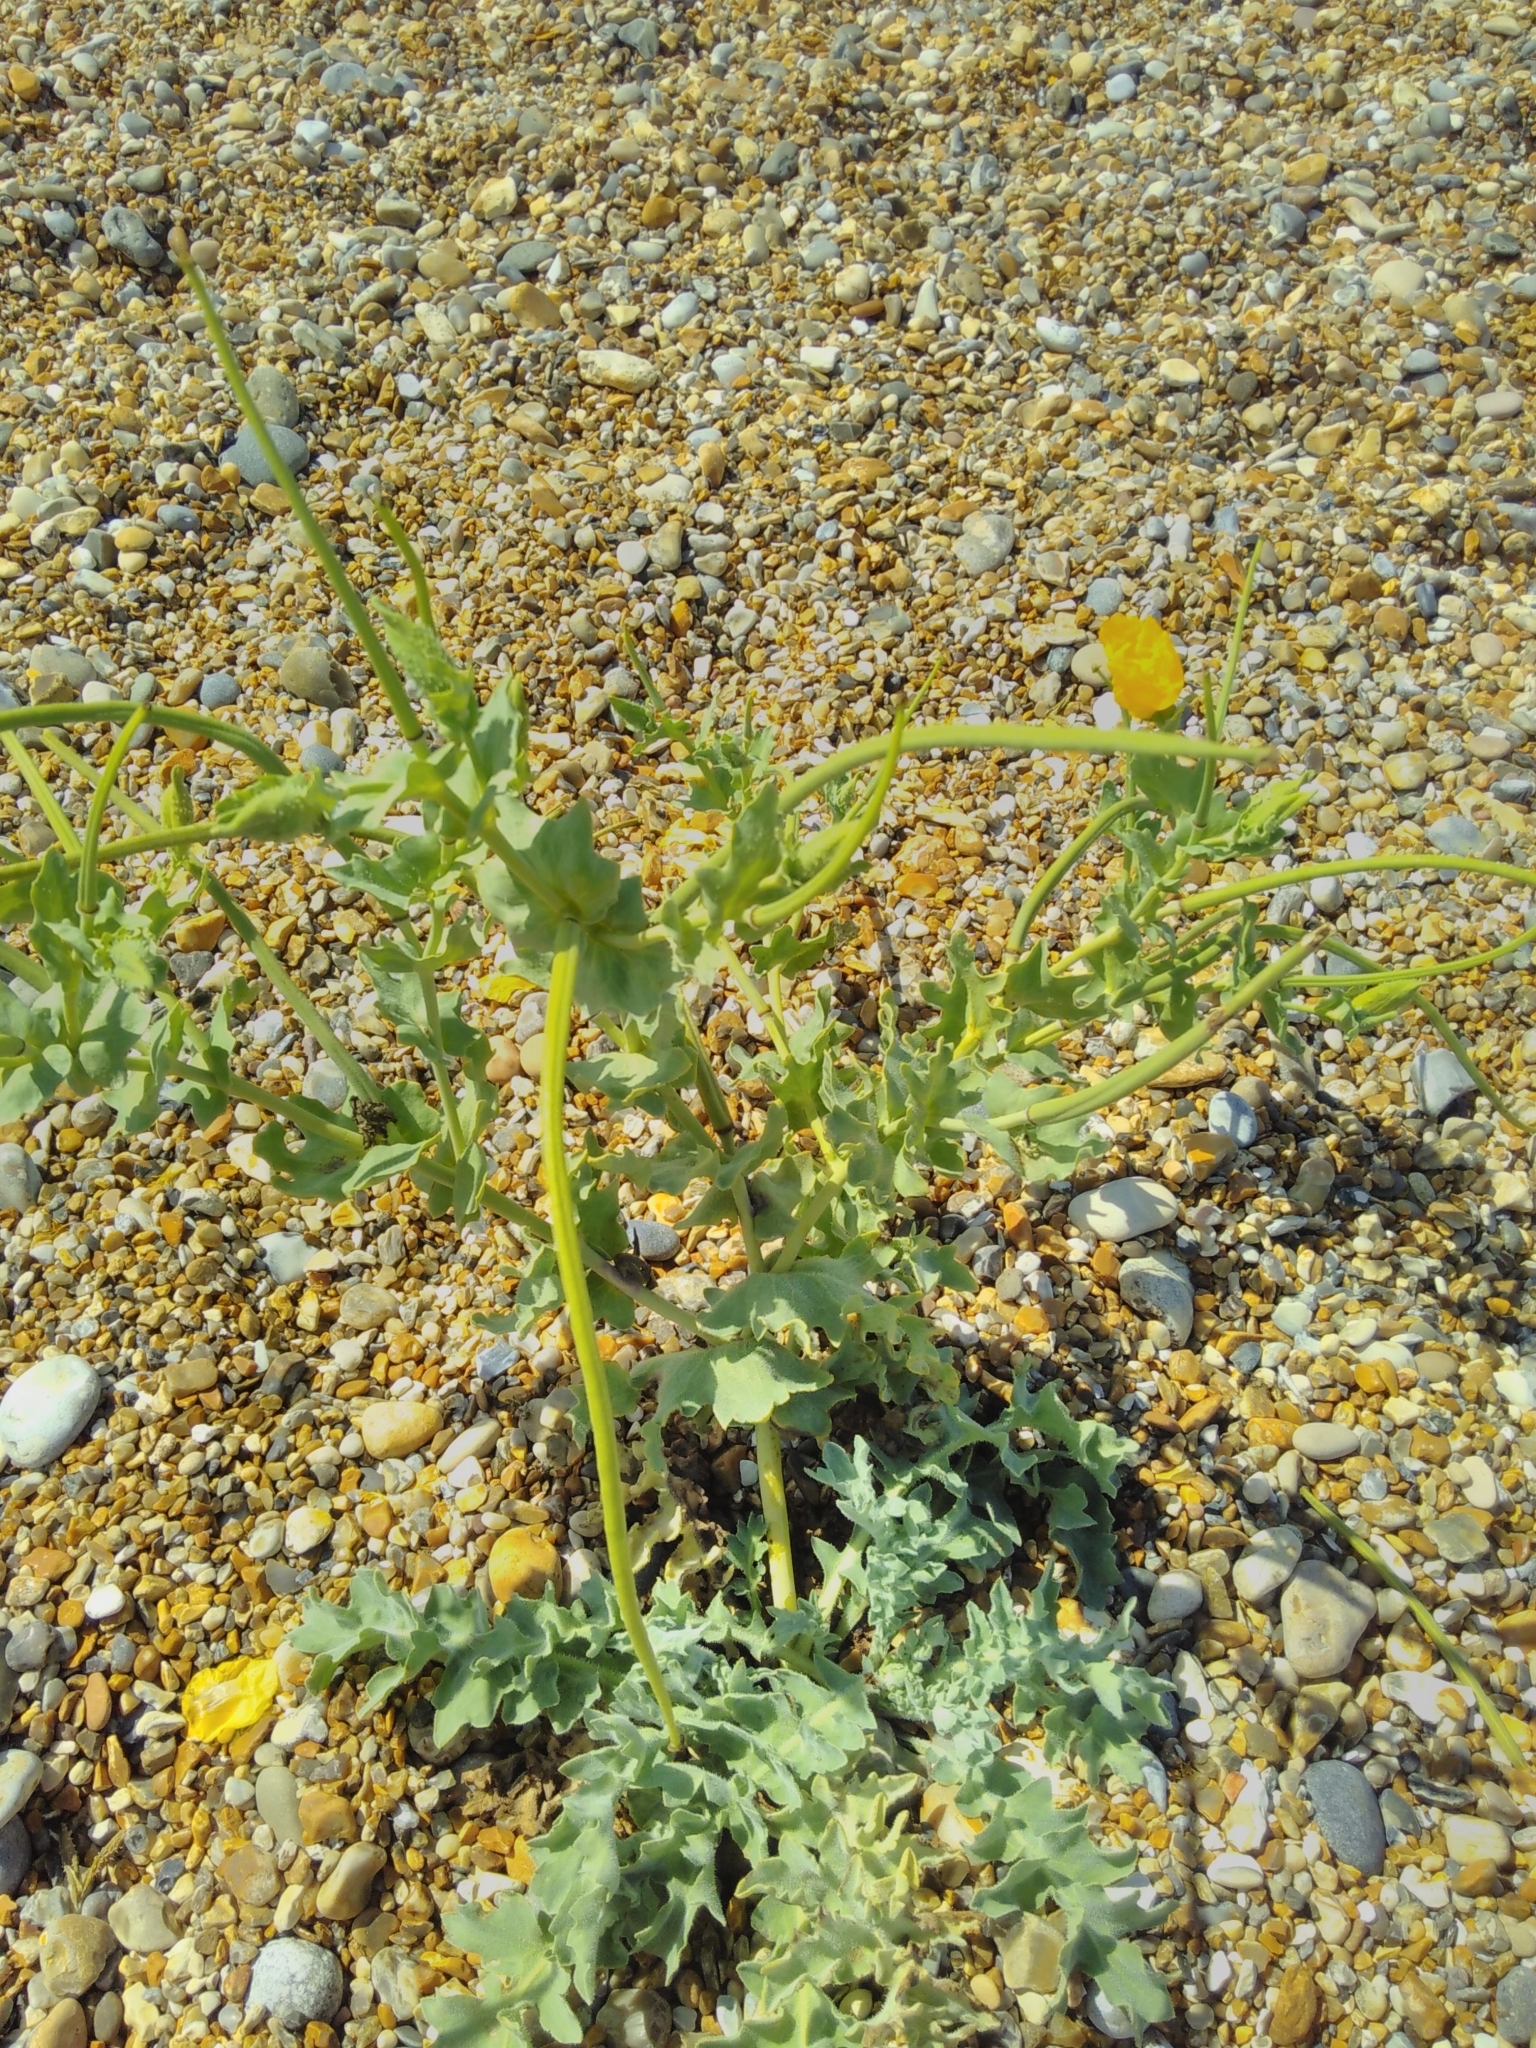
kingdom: Plantae
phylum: Tracheophyta
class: Magnoliopsida
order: Ranunculales
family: Papaveraceae
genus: Glaucium
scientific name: Glaucium flavum
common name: Yellow horned-poppy
